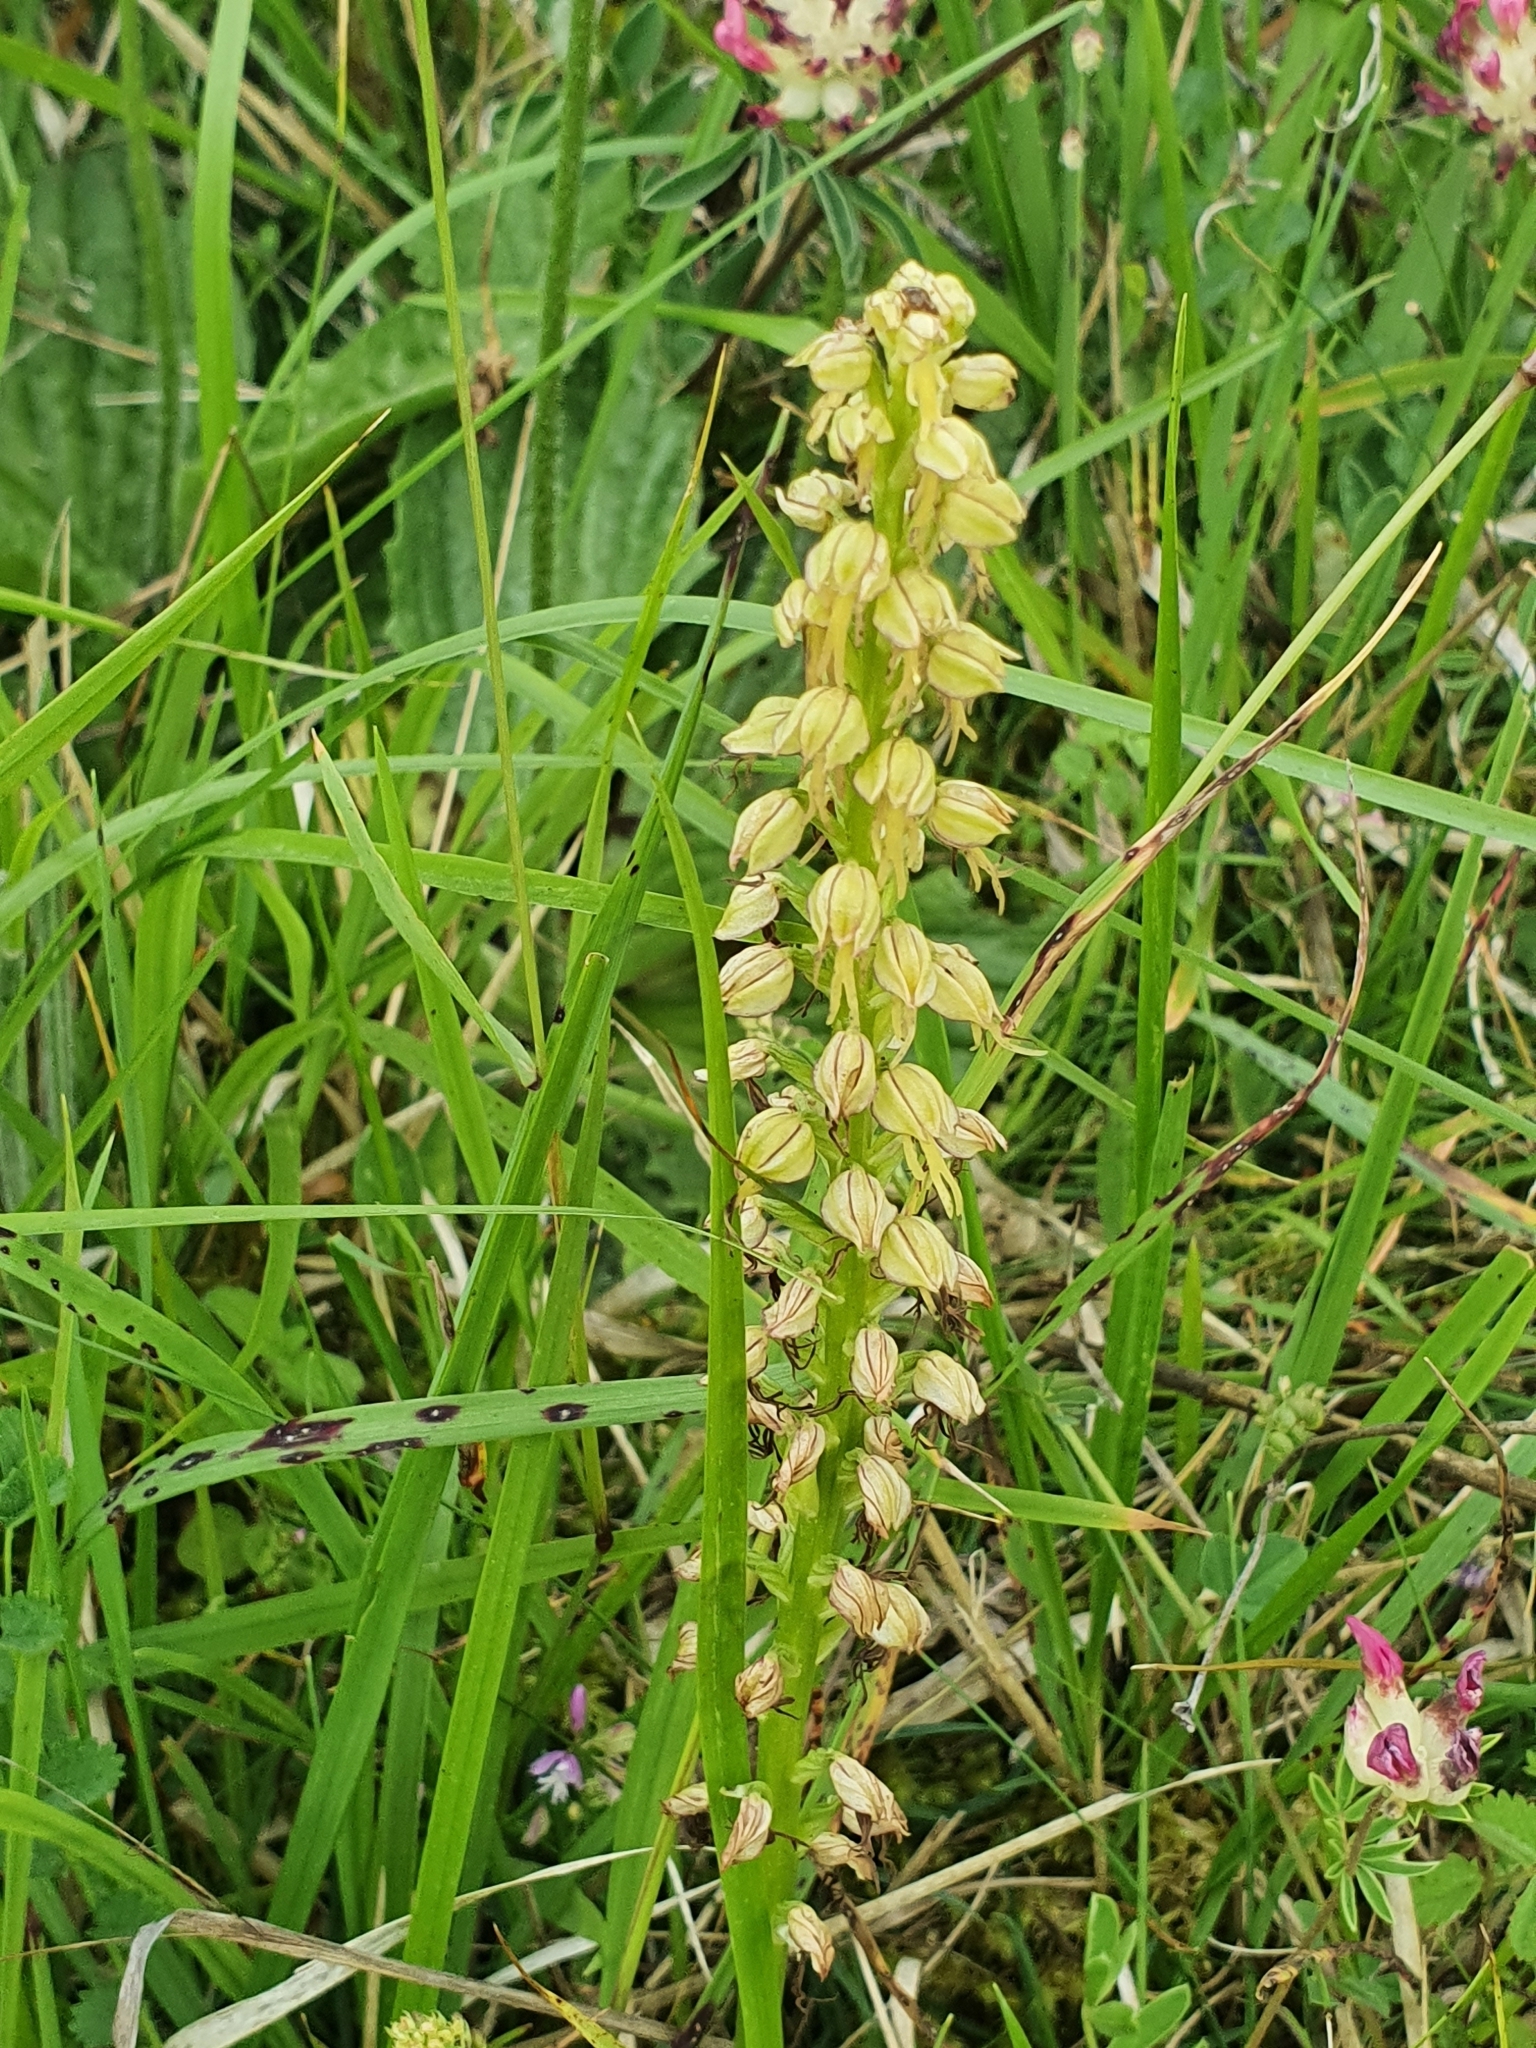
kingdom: Plantae
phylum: Tracheophyta
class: Liliopsida
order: Asparagales
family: Orchidaceae
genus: Orchis
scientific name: Orchis anthropophora
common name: Man orchid
